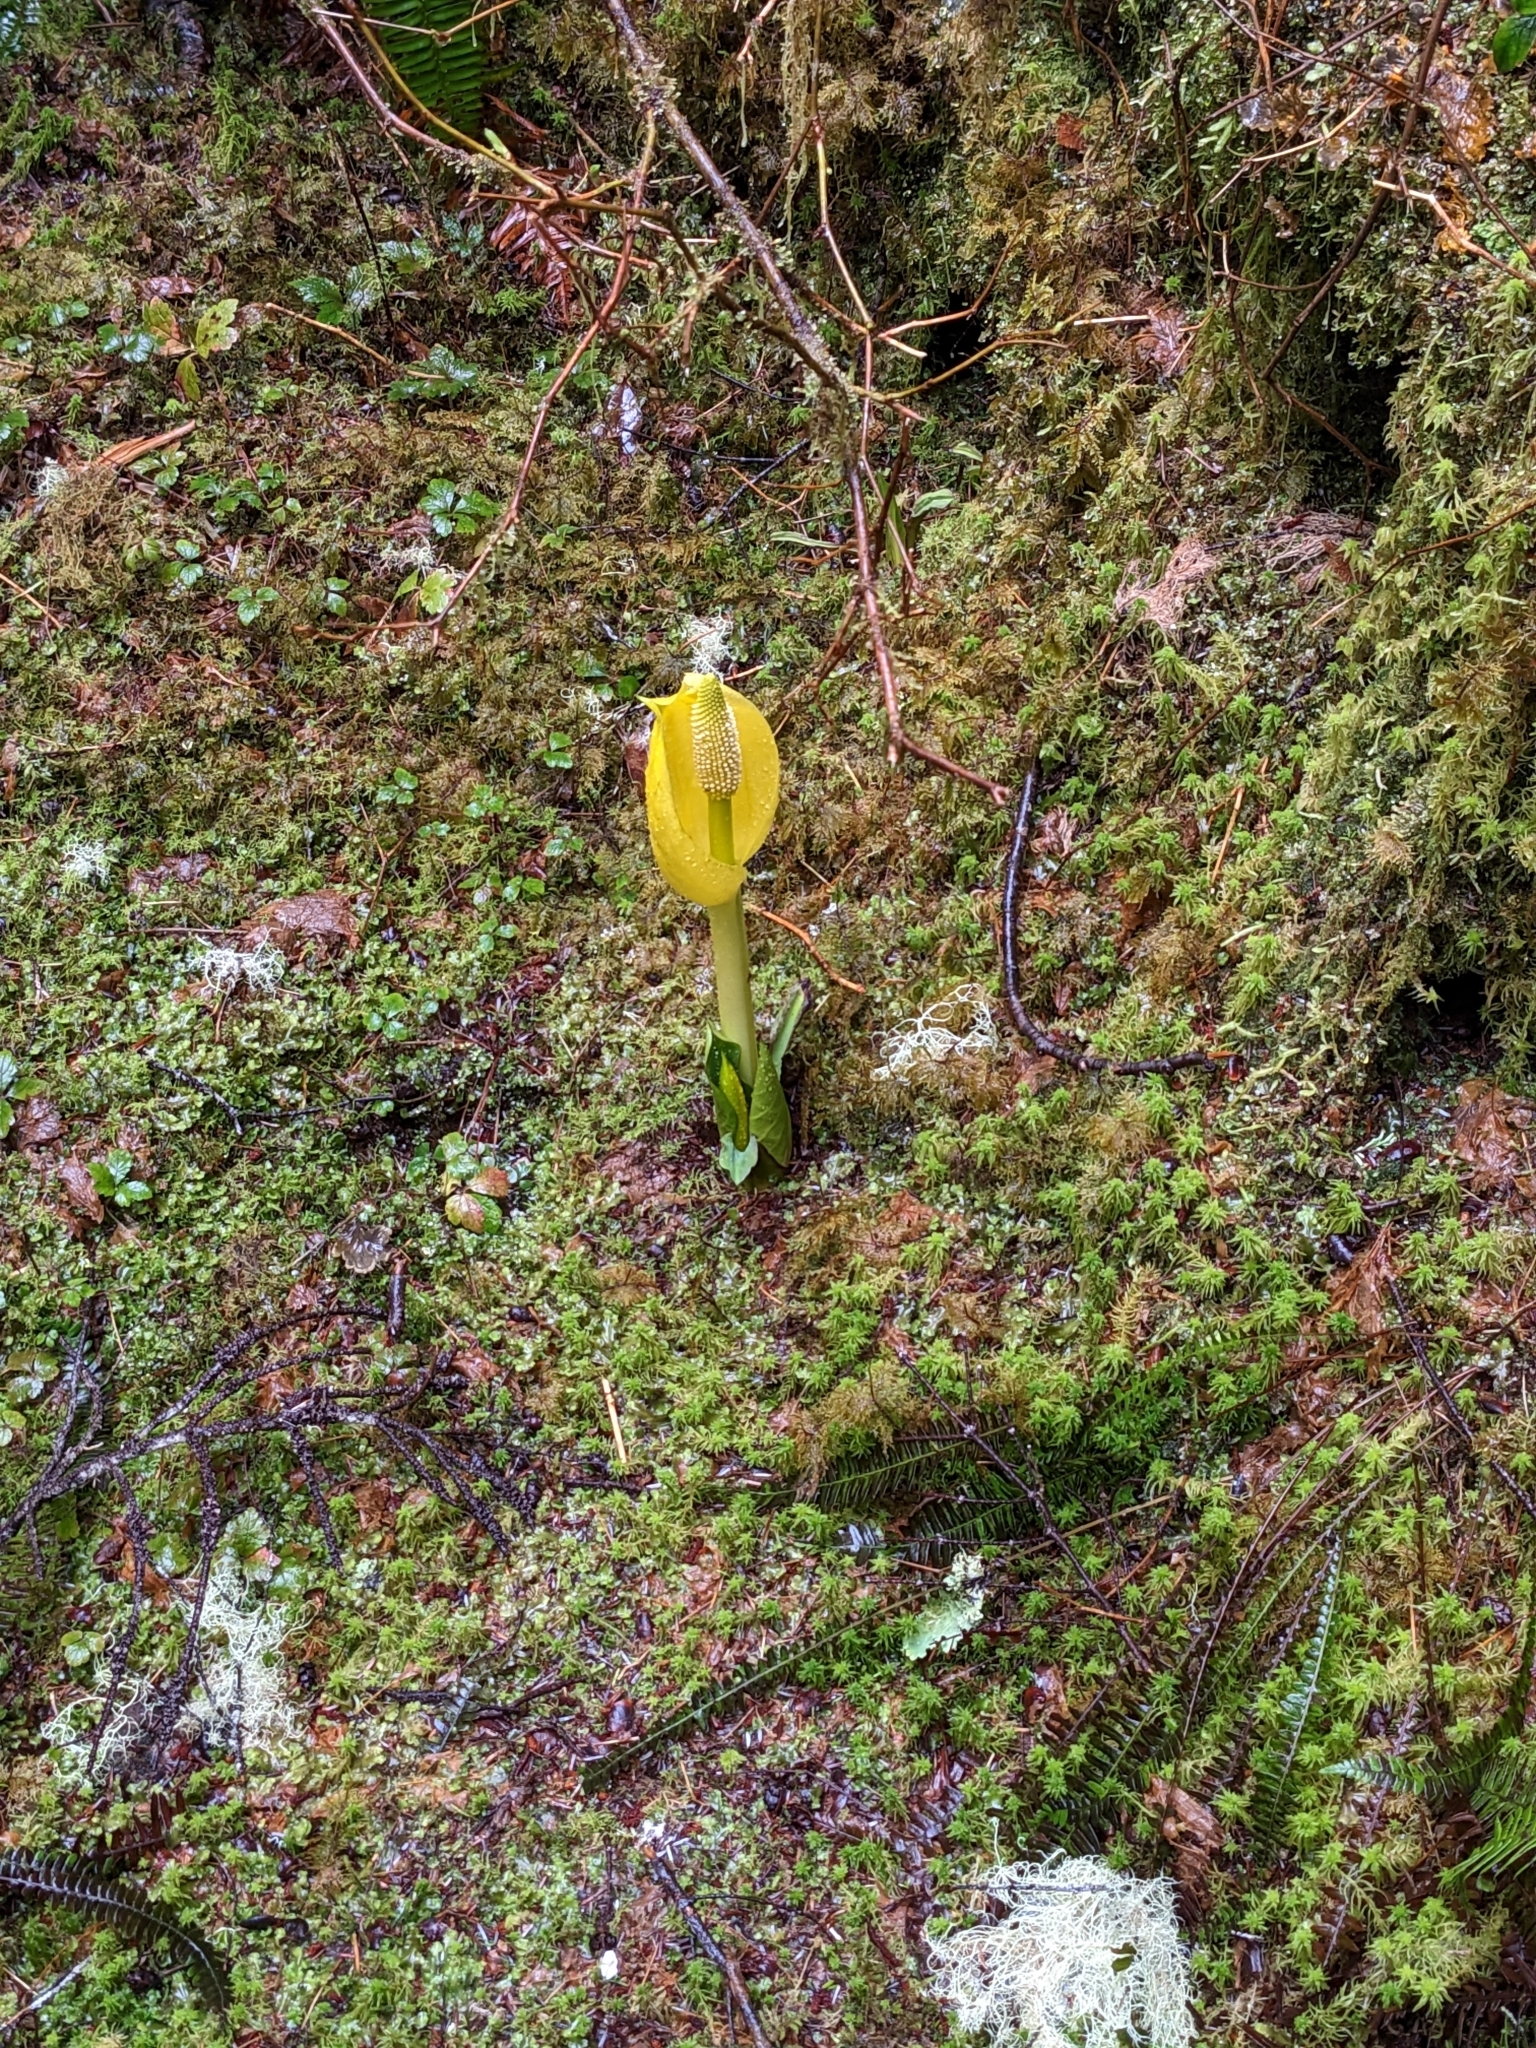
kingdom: Plantae
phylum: Tracheophyta
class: Liliopsida
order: Alismatales
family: Araceae
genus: Lysichiton
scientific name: Lysichiton americanus
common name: American skunk cabbage
